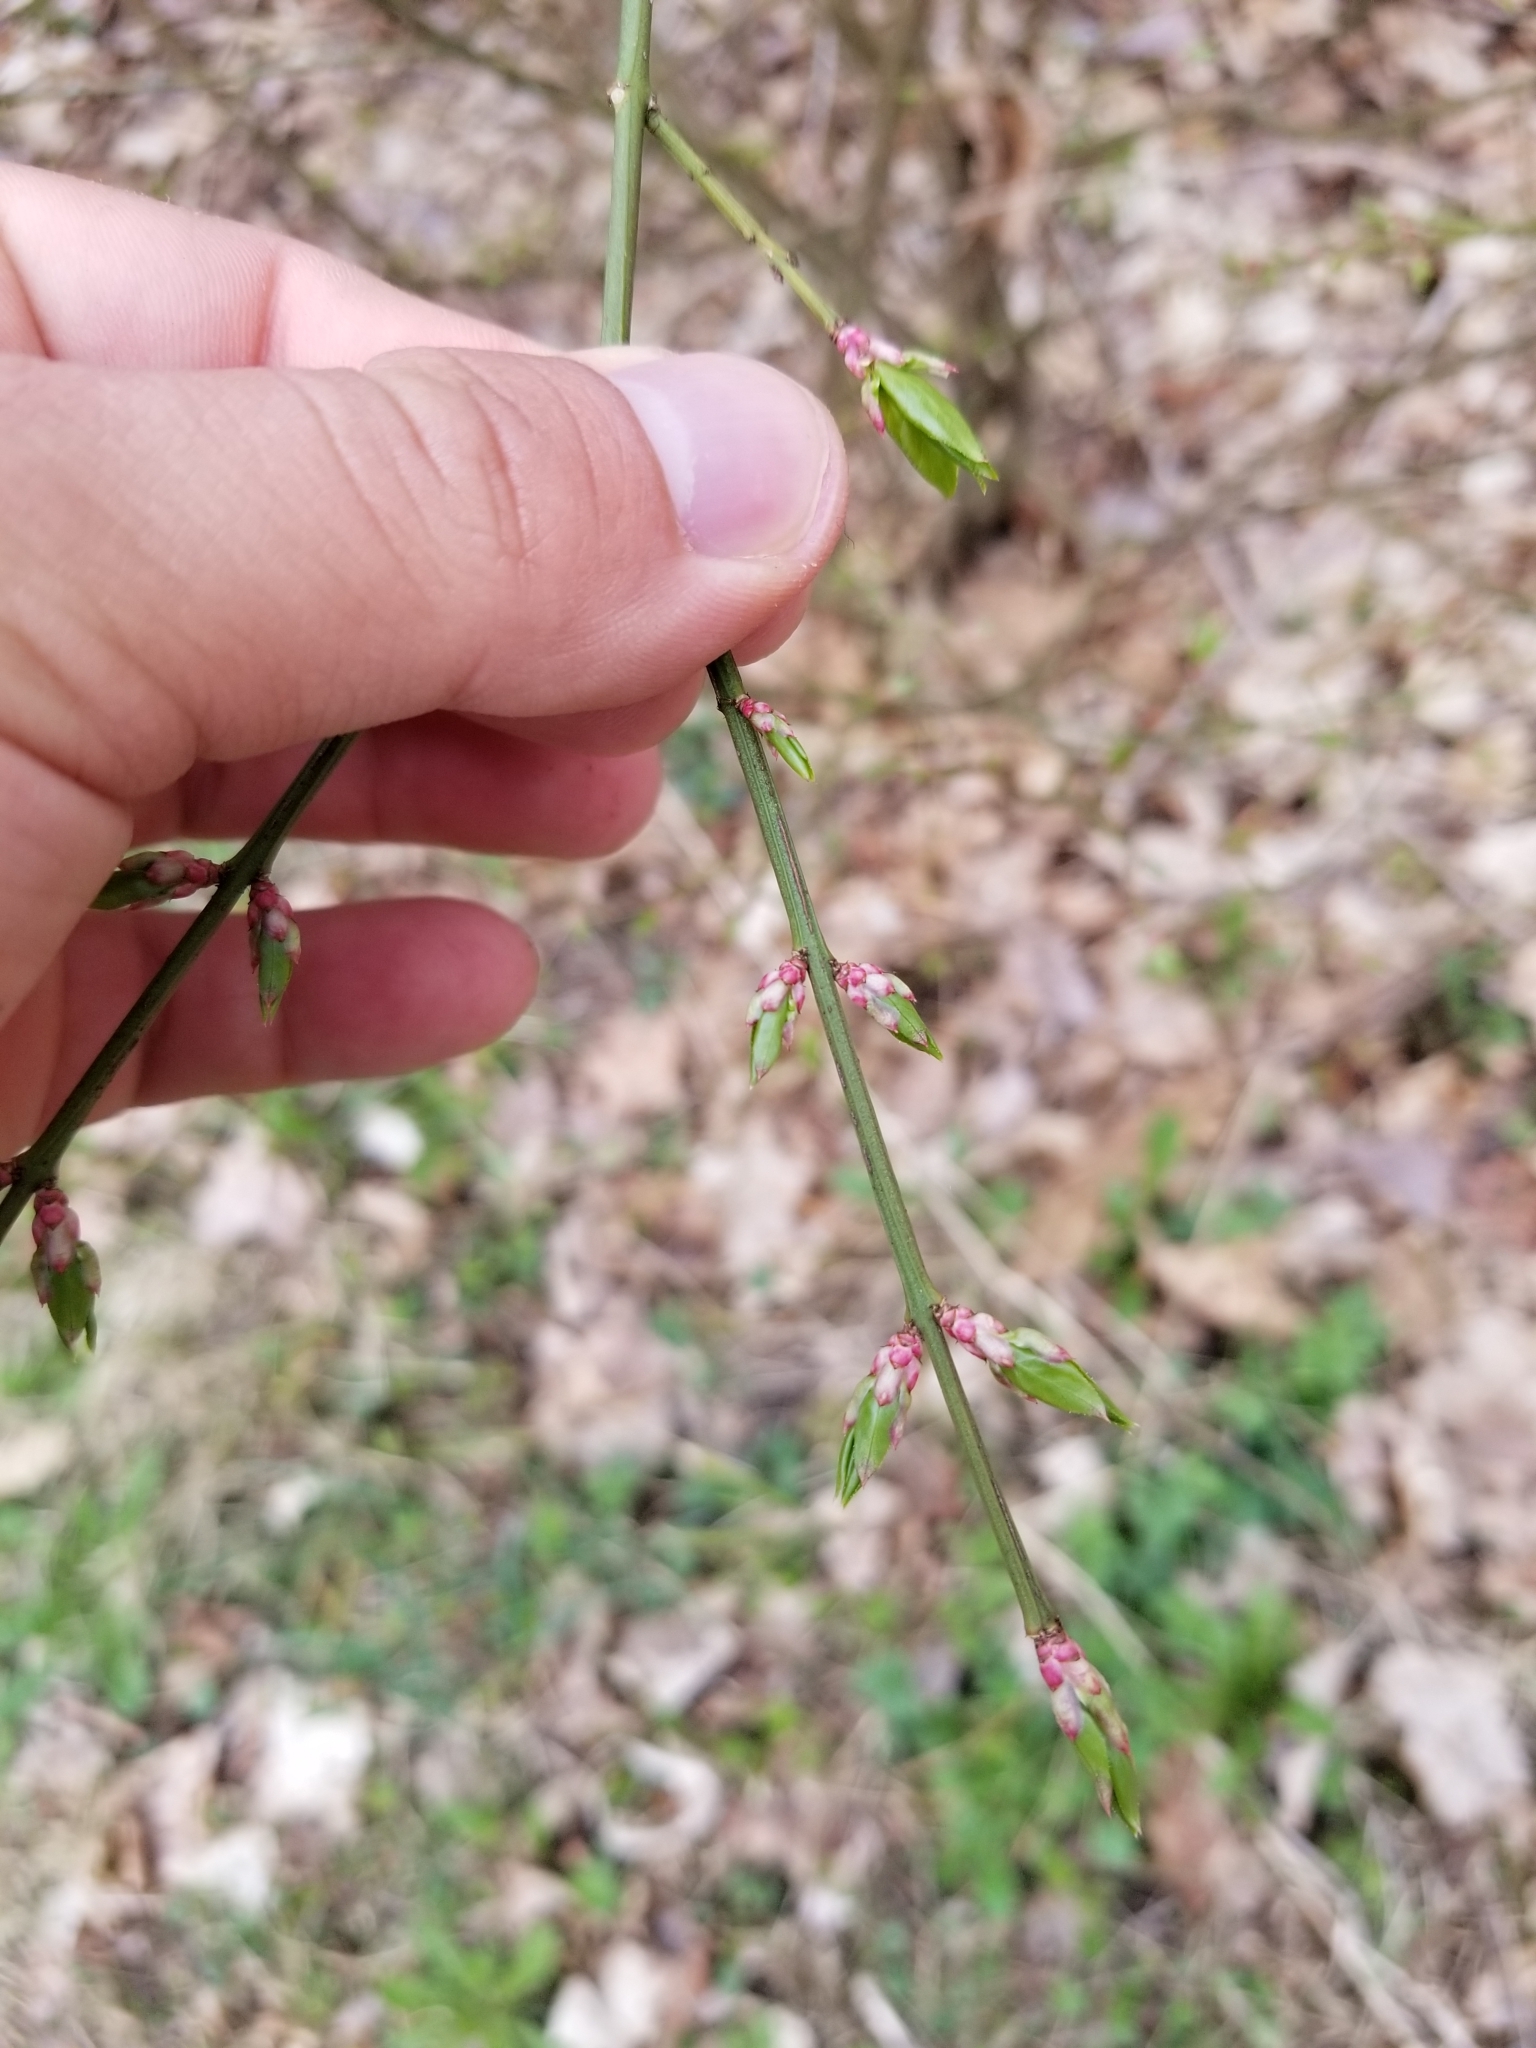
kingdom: Plantae
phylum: Tracheophyta
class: Magnoliopsida
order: Celastrales
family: Celastraceae
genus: Euonymus
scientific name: Euonymus alatus
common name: Winged euonymus
